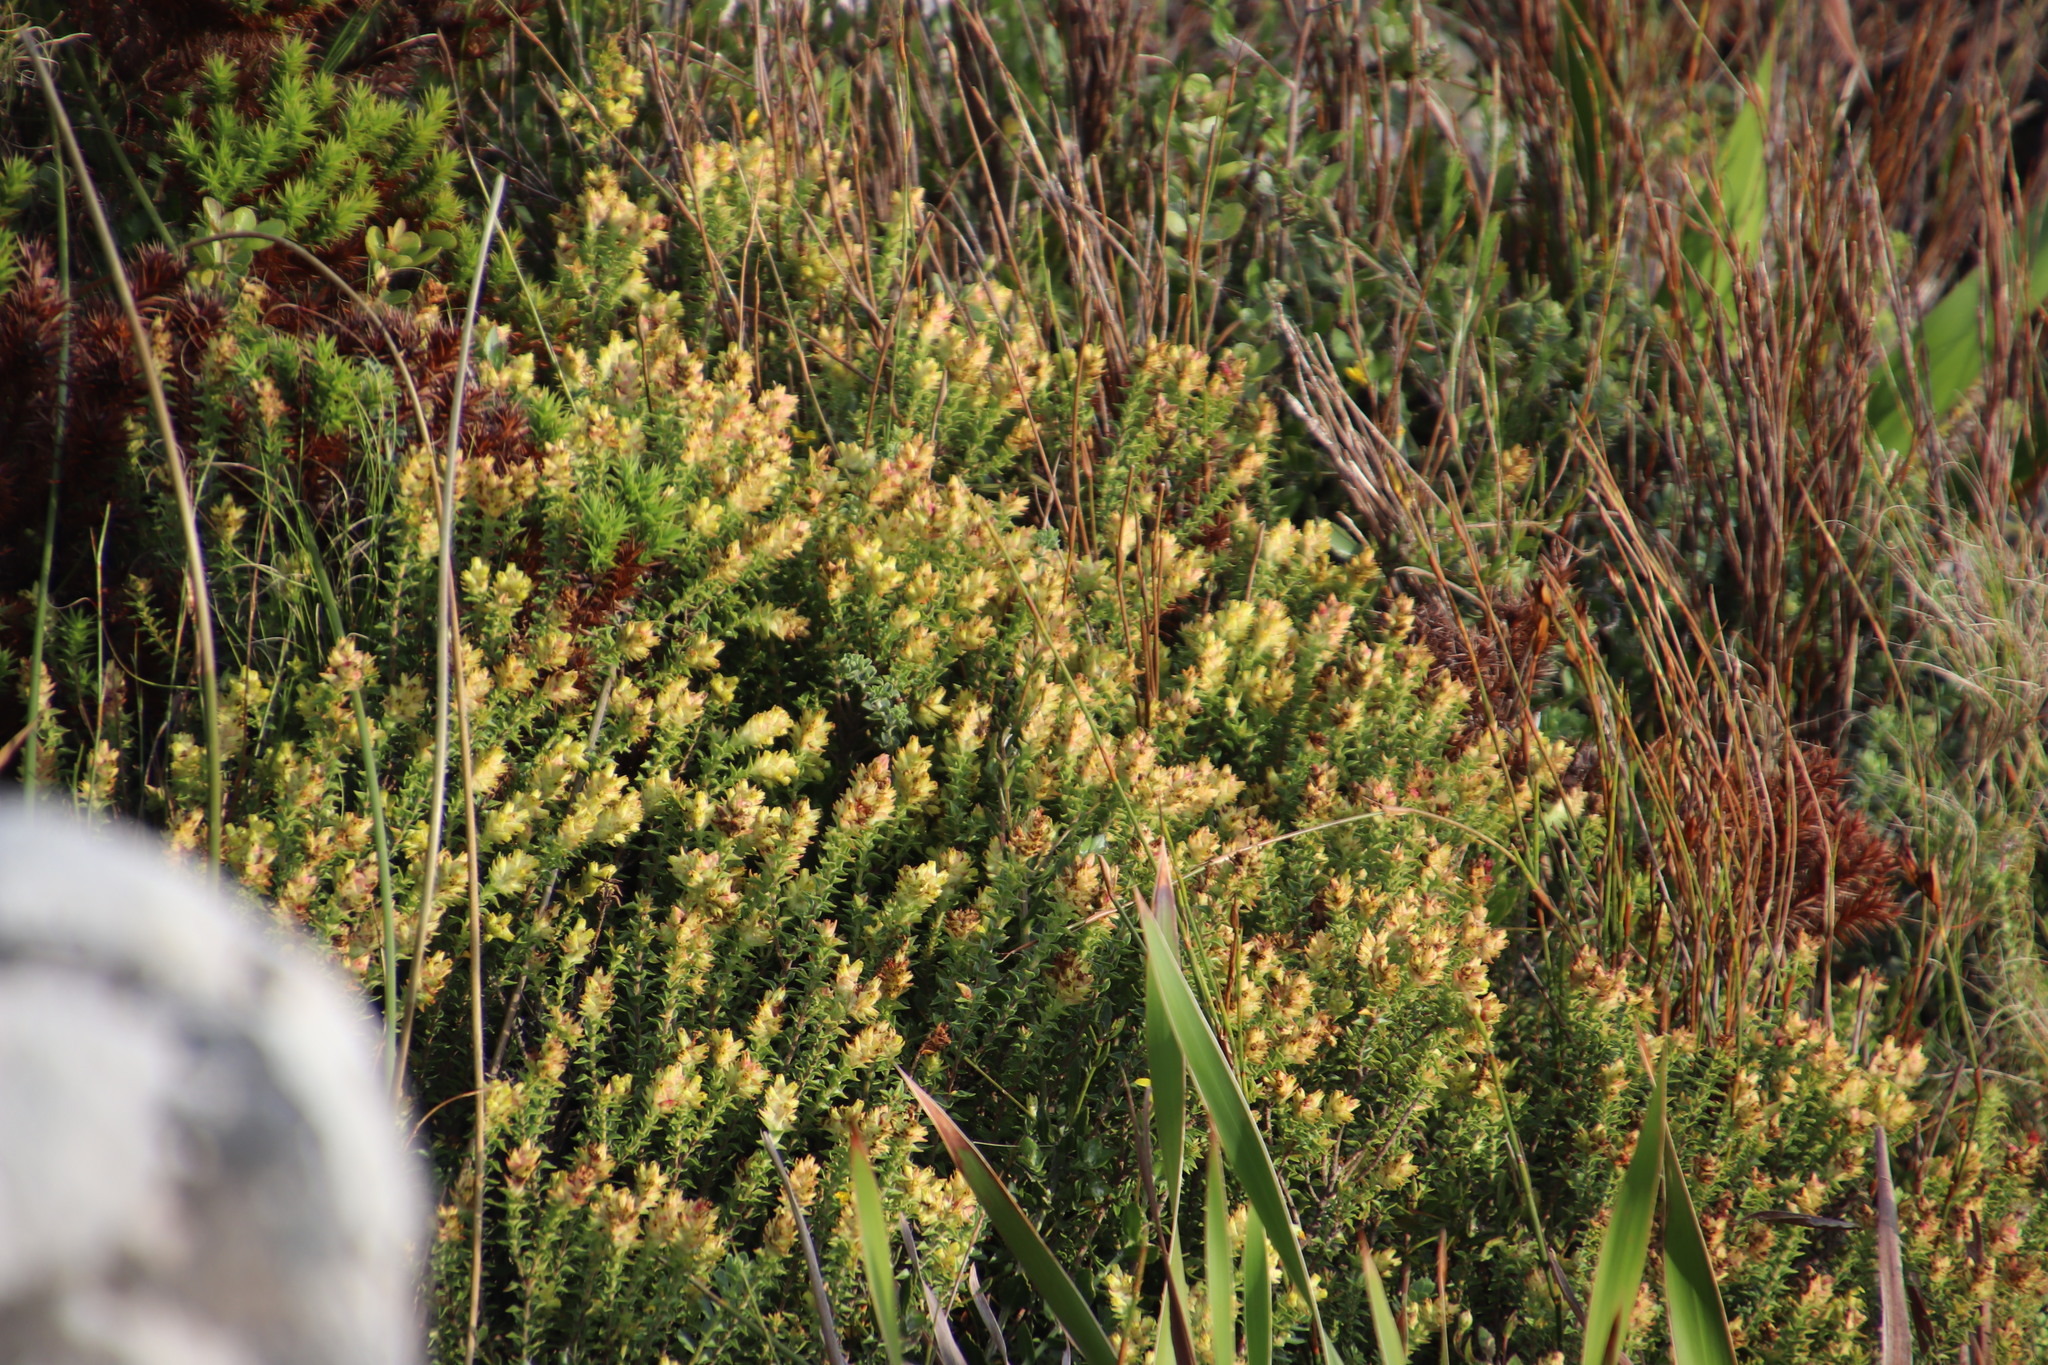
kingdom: Plantae
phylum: Tracheophyta
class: Magnoliopsida
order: Myrtales
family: Penaeaceae
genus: Penaea
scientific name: Penaea mucronata
